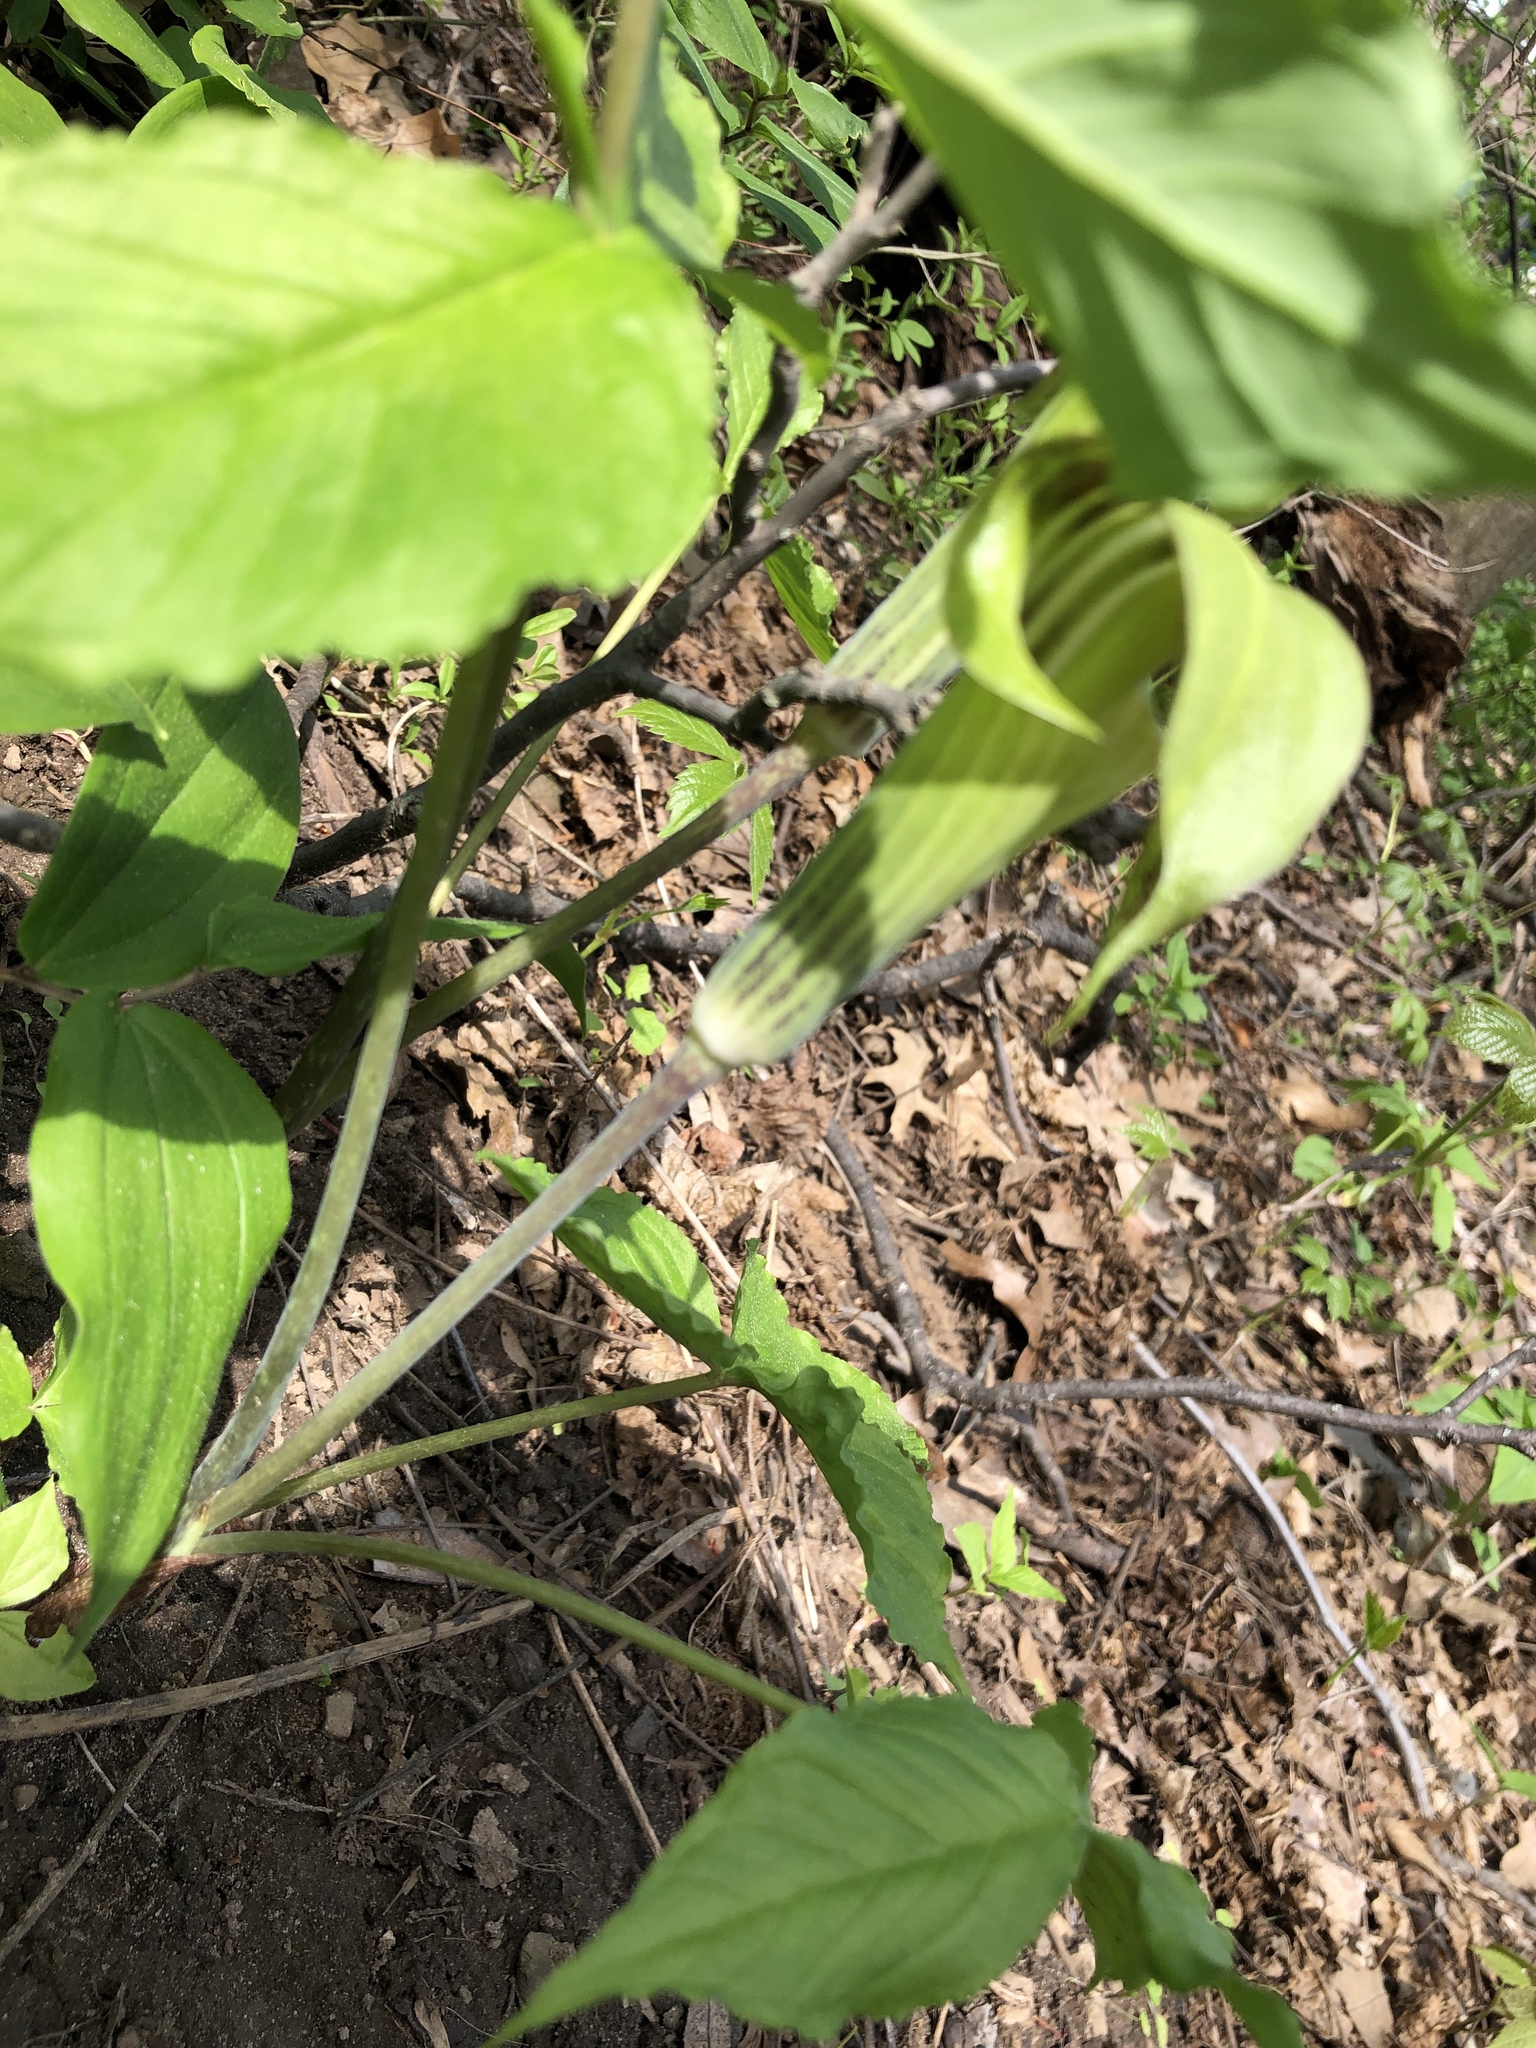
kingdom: Plantae
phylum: Tracheophyta
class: Liliopsida
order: Alismatales
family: Araceae
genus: Arisaema
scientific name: Arisaema triphyllum
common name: Jack-in-the-pulpit
